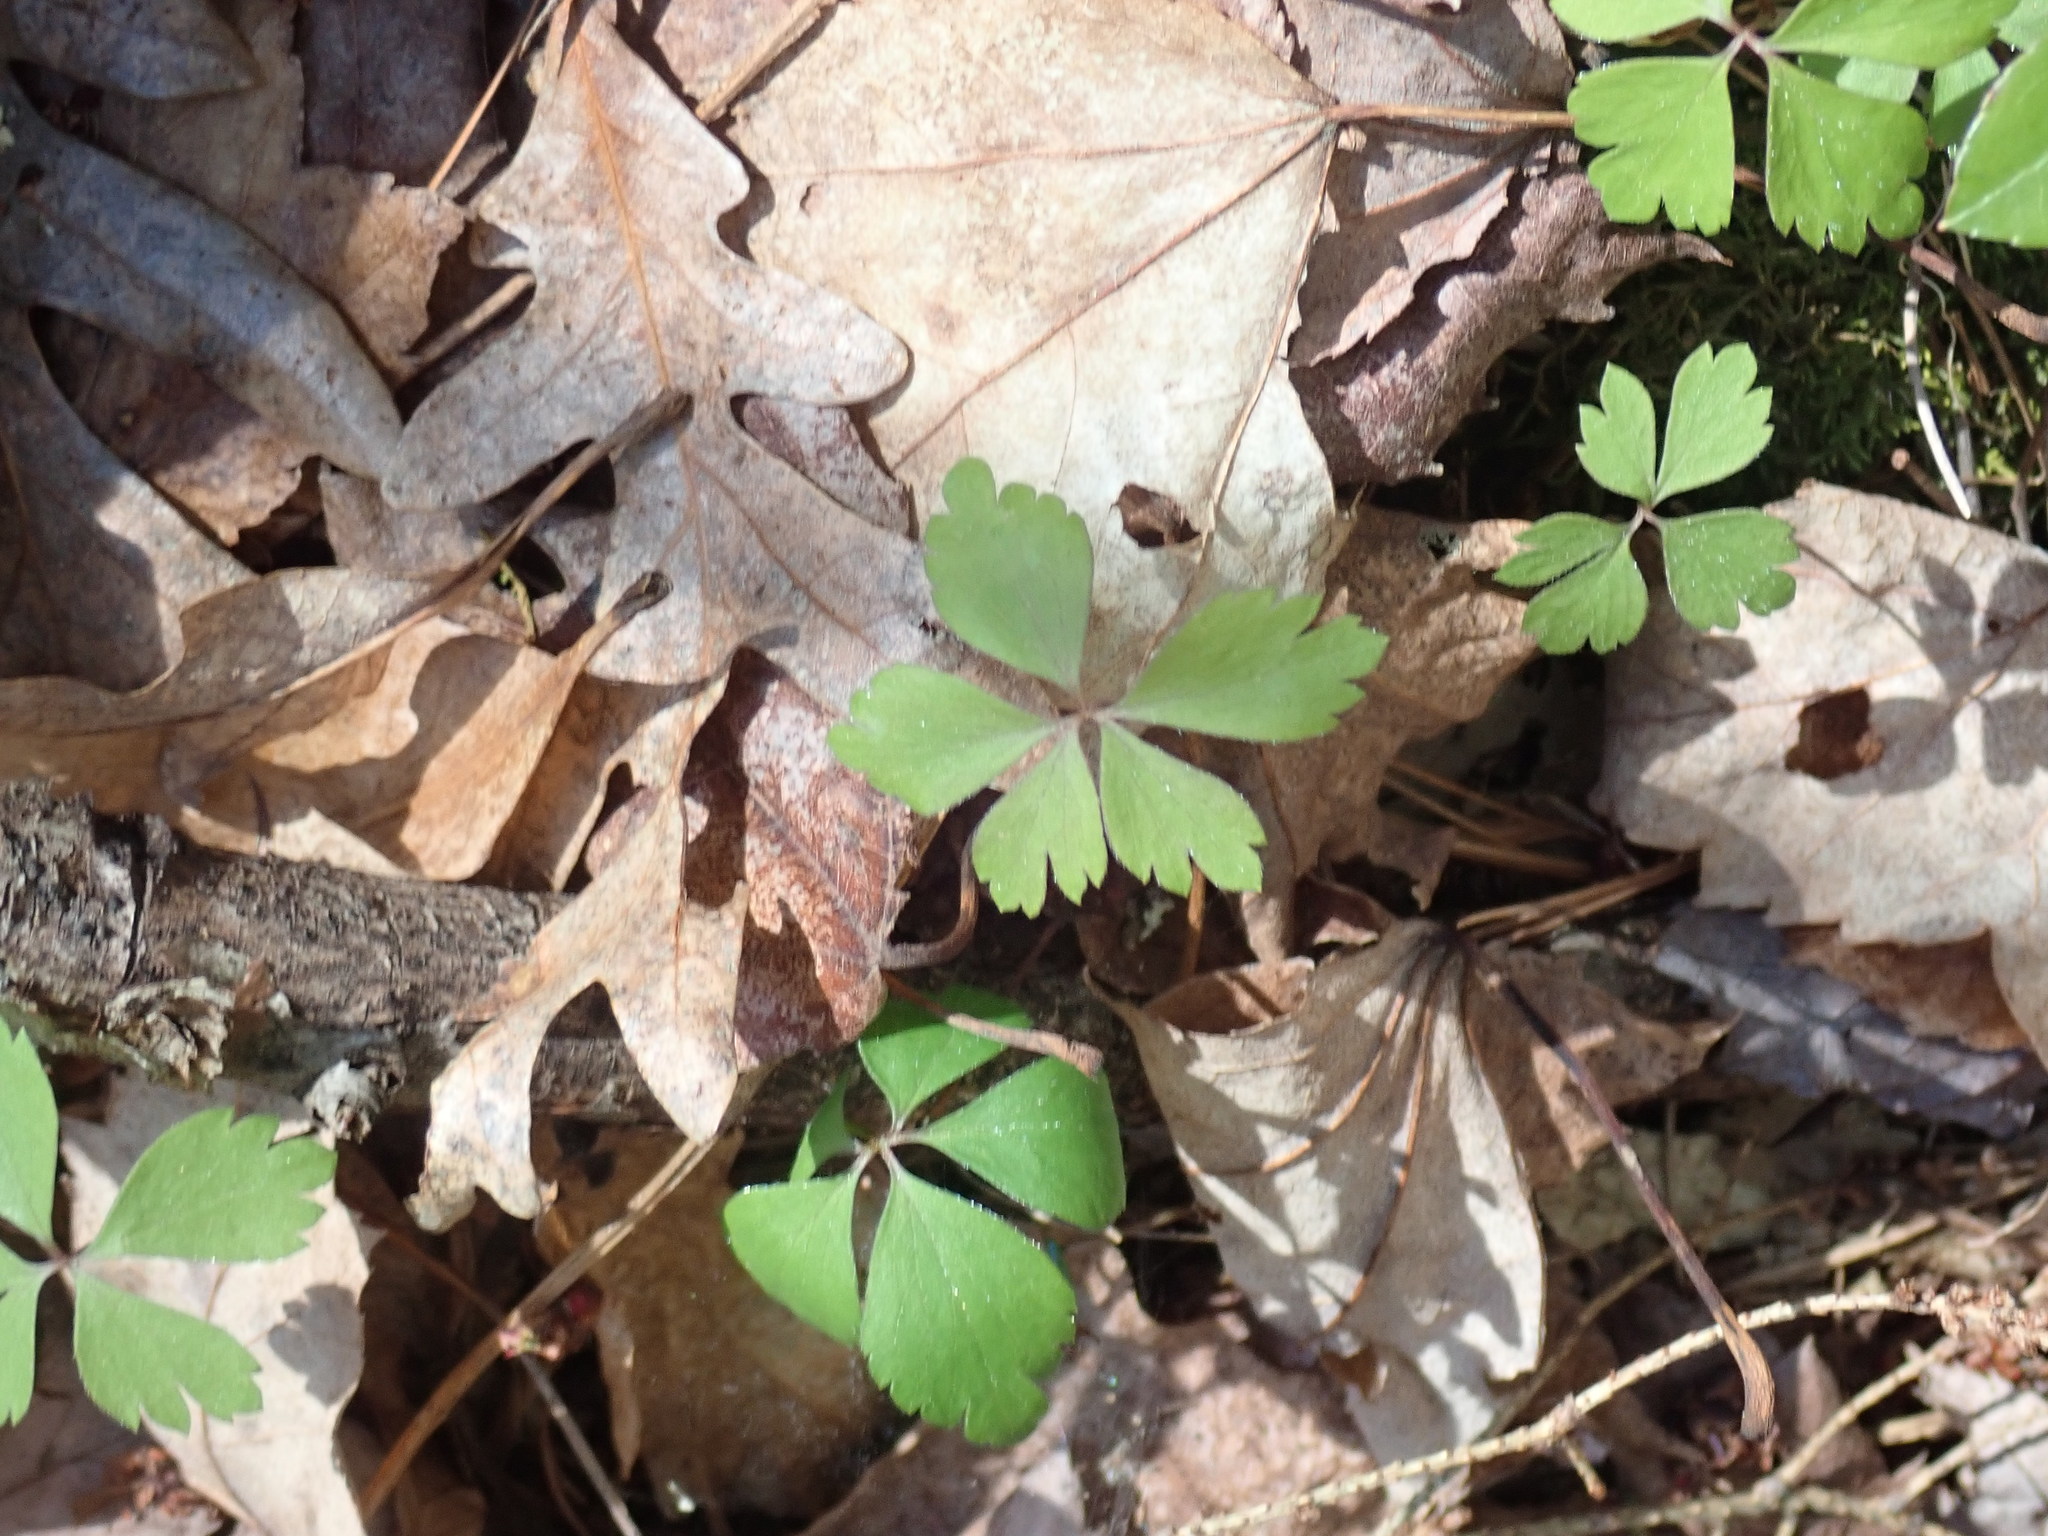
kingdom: Plantae
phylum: Tracheophyta
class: Magnoliopsida
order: Ranunculales
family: Ranunculaceae
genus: Anemone
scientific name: Anemone quinquefolia
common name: Wood anemone
